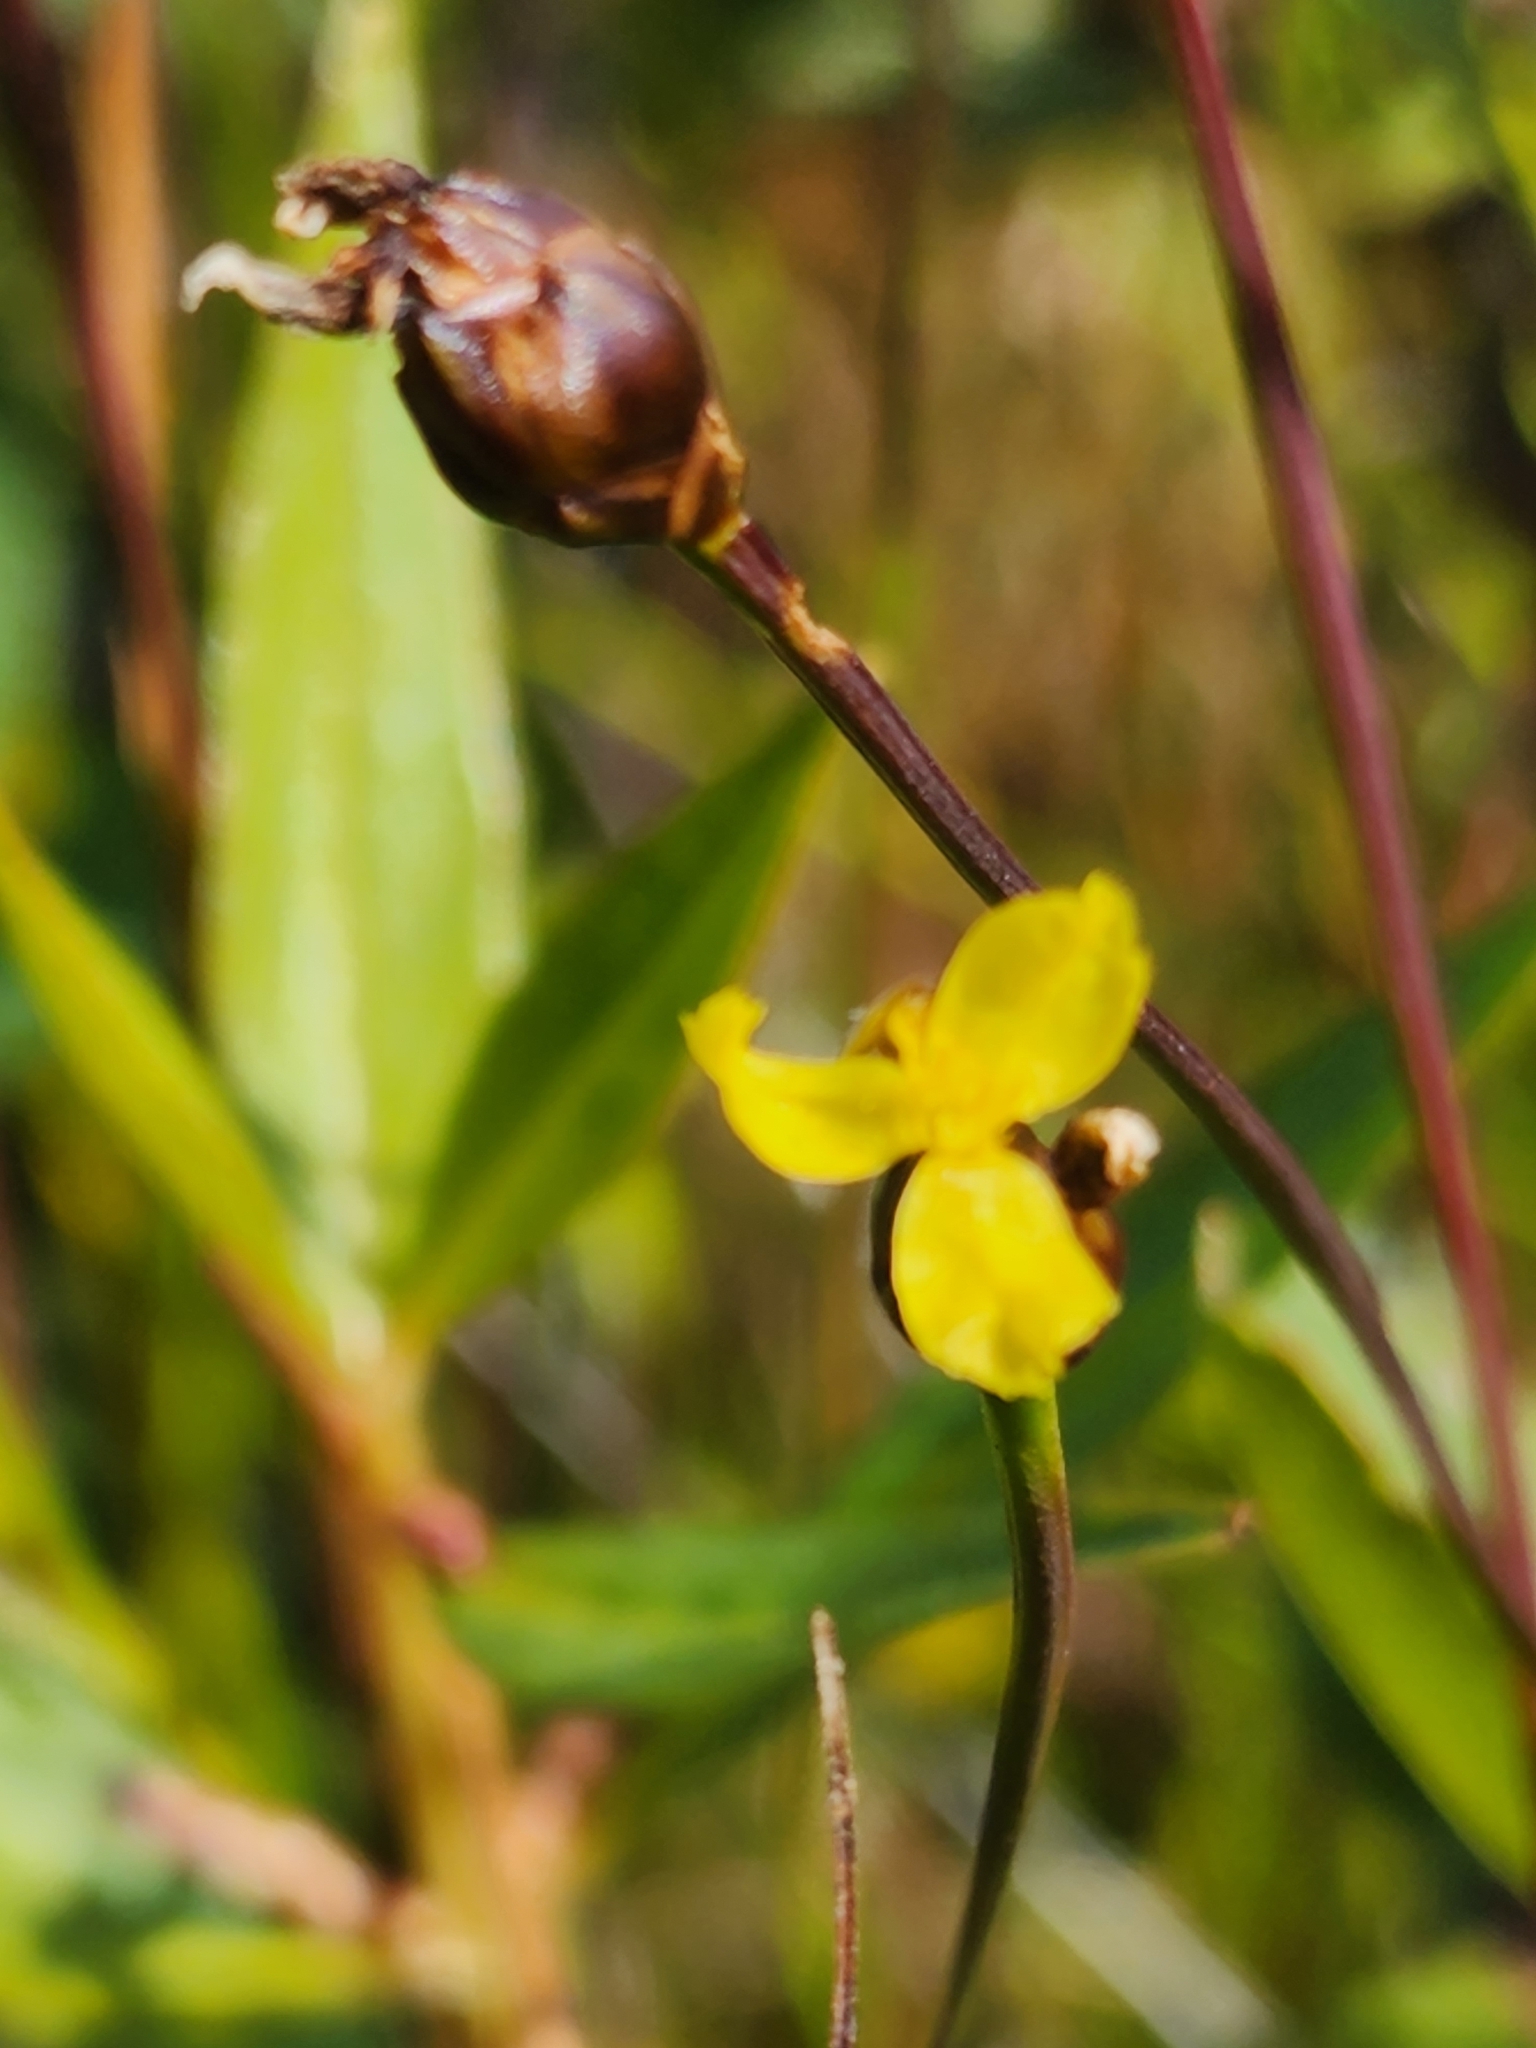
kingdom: Plantae
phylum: Tracheophyta
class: Liliopsida
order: Poales
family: Xyridaceae
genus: Xyris
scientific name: Xyris montana
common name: Northern yellow-eyed-grass
